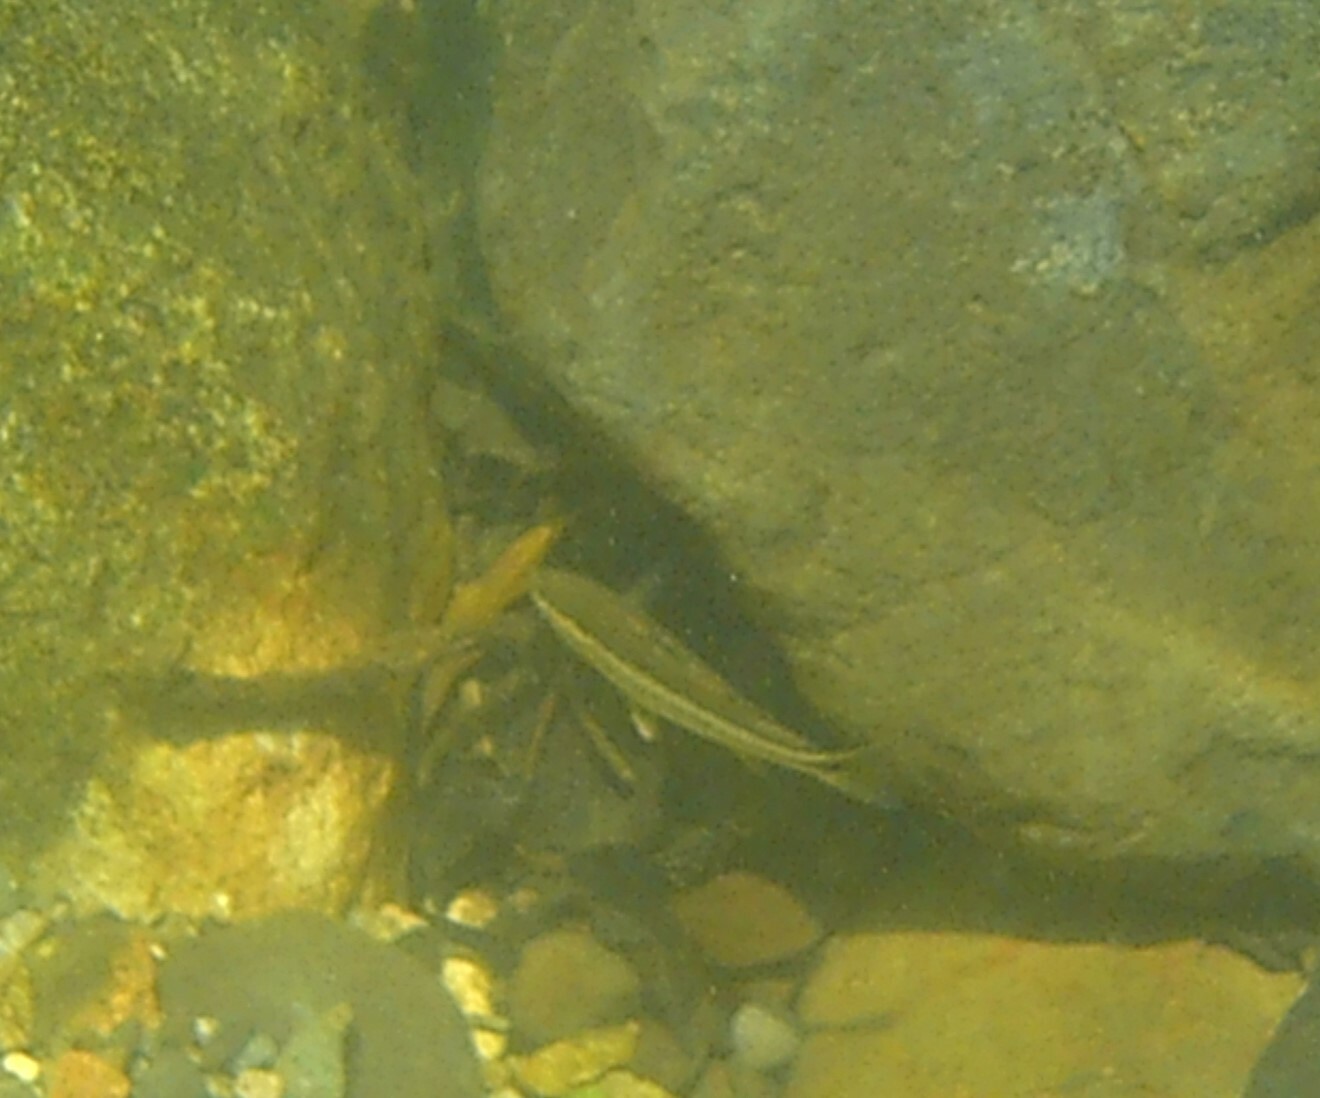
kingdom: Animalia
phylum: Chordata
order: Mugiliformes
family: Mugilidae
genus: Dajaus
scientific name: Dajaus monticola
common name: Mountain mullet
